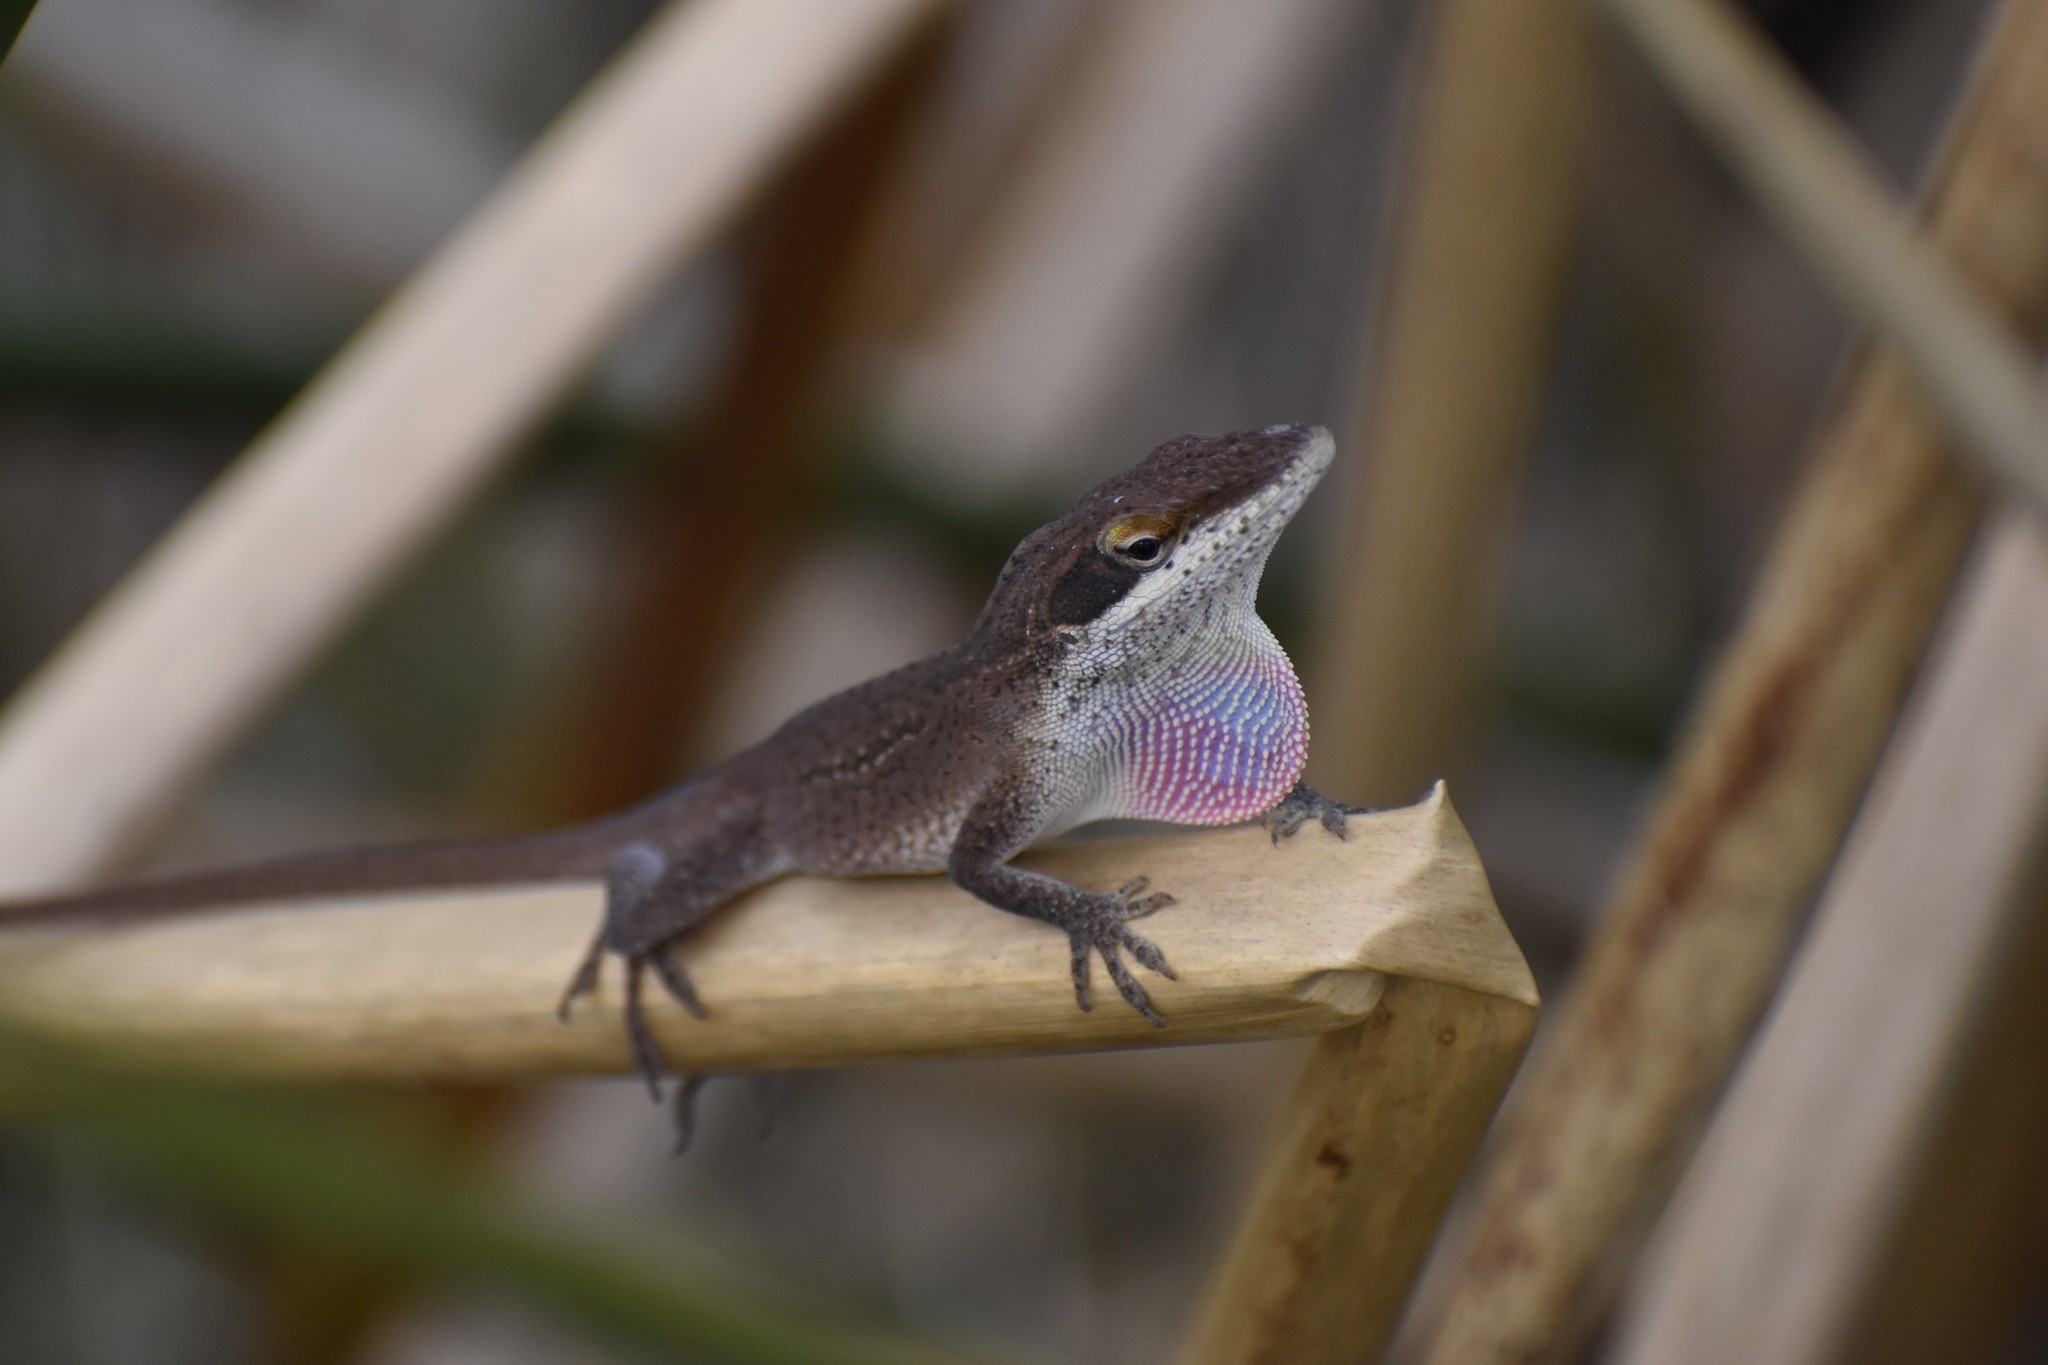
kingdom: Animalia
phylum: Chordata
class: Squamata
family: Dactyloidae
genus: Anolis
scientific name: Anolis carolinensis
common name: Green anole
